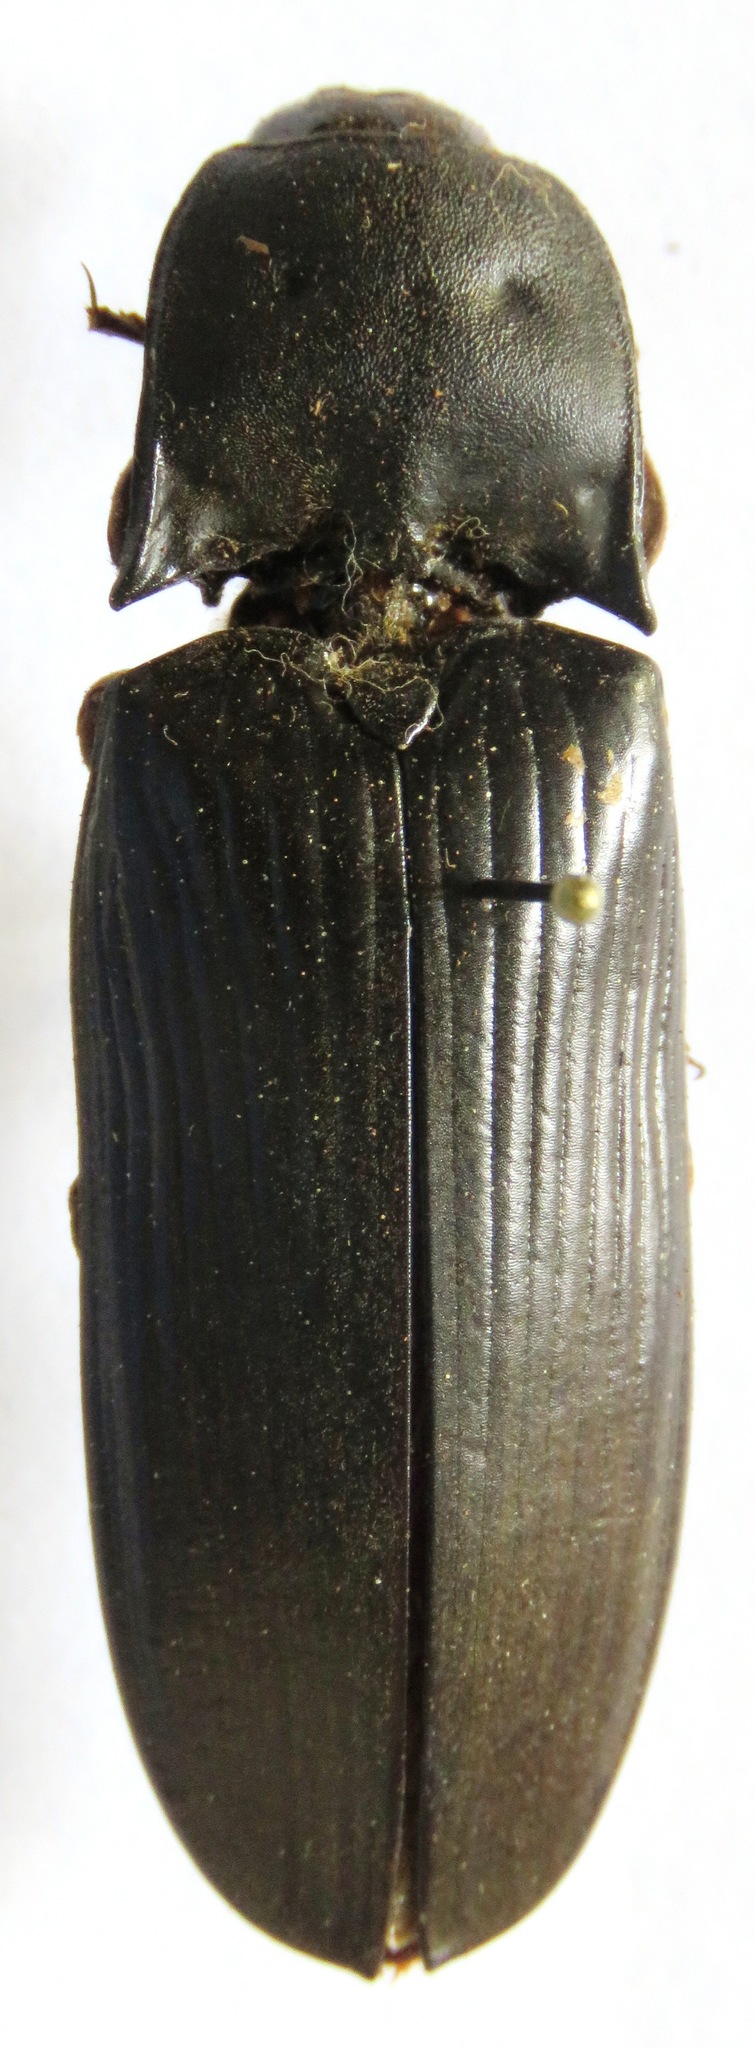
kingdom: Animalia
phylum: Arthropoda
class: Insecta
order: Coleoptera
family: Elateridae
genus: Tetralobus
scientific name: Tetralobus hiekei
